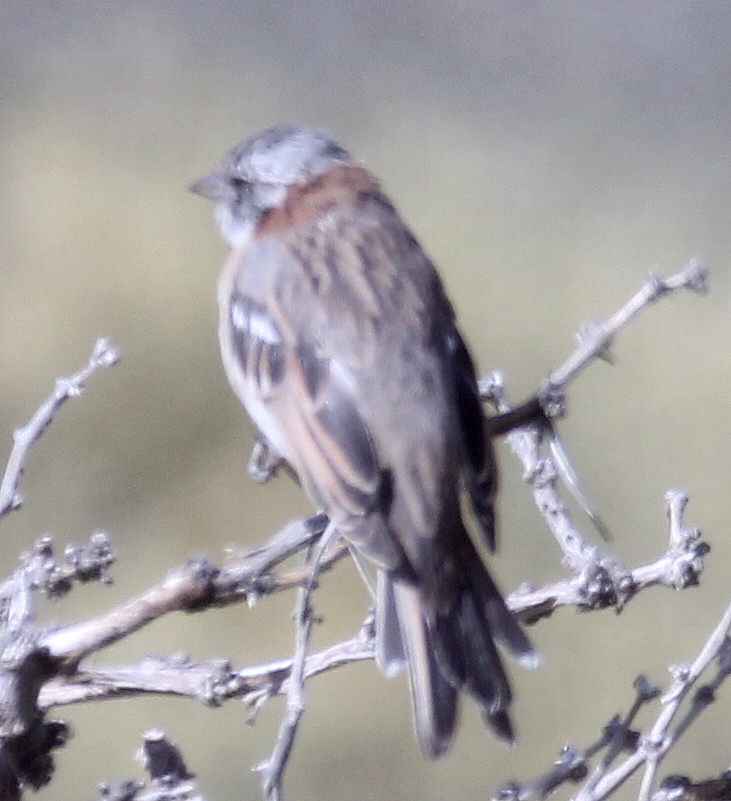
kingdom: Animalia
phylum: Chordata
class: Aves
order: Passeriformes
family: Passerellidae
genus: Zonotrichia
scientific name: Zonotrichia capensis
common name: Rufous-collared sparrow
